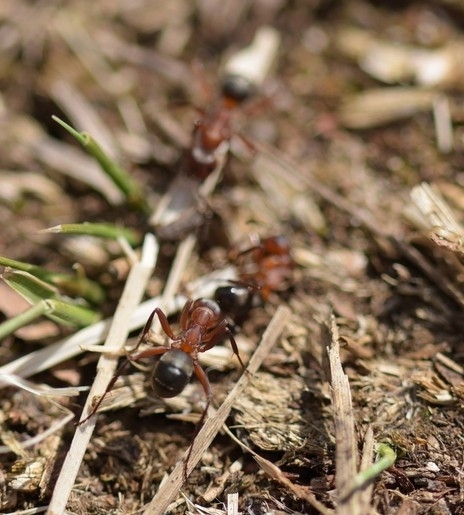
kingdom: Animalia
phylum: Arthropoda
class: Insecta
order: Hymenoptera
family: Formicidae
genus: Formica
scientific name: Formica sanguinea
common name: Blood-red ant
